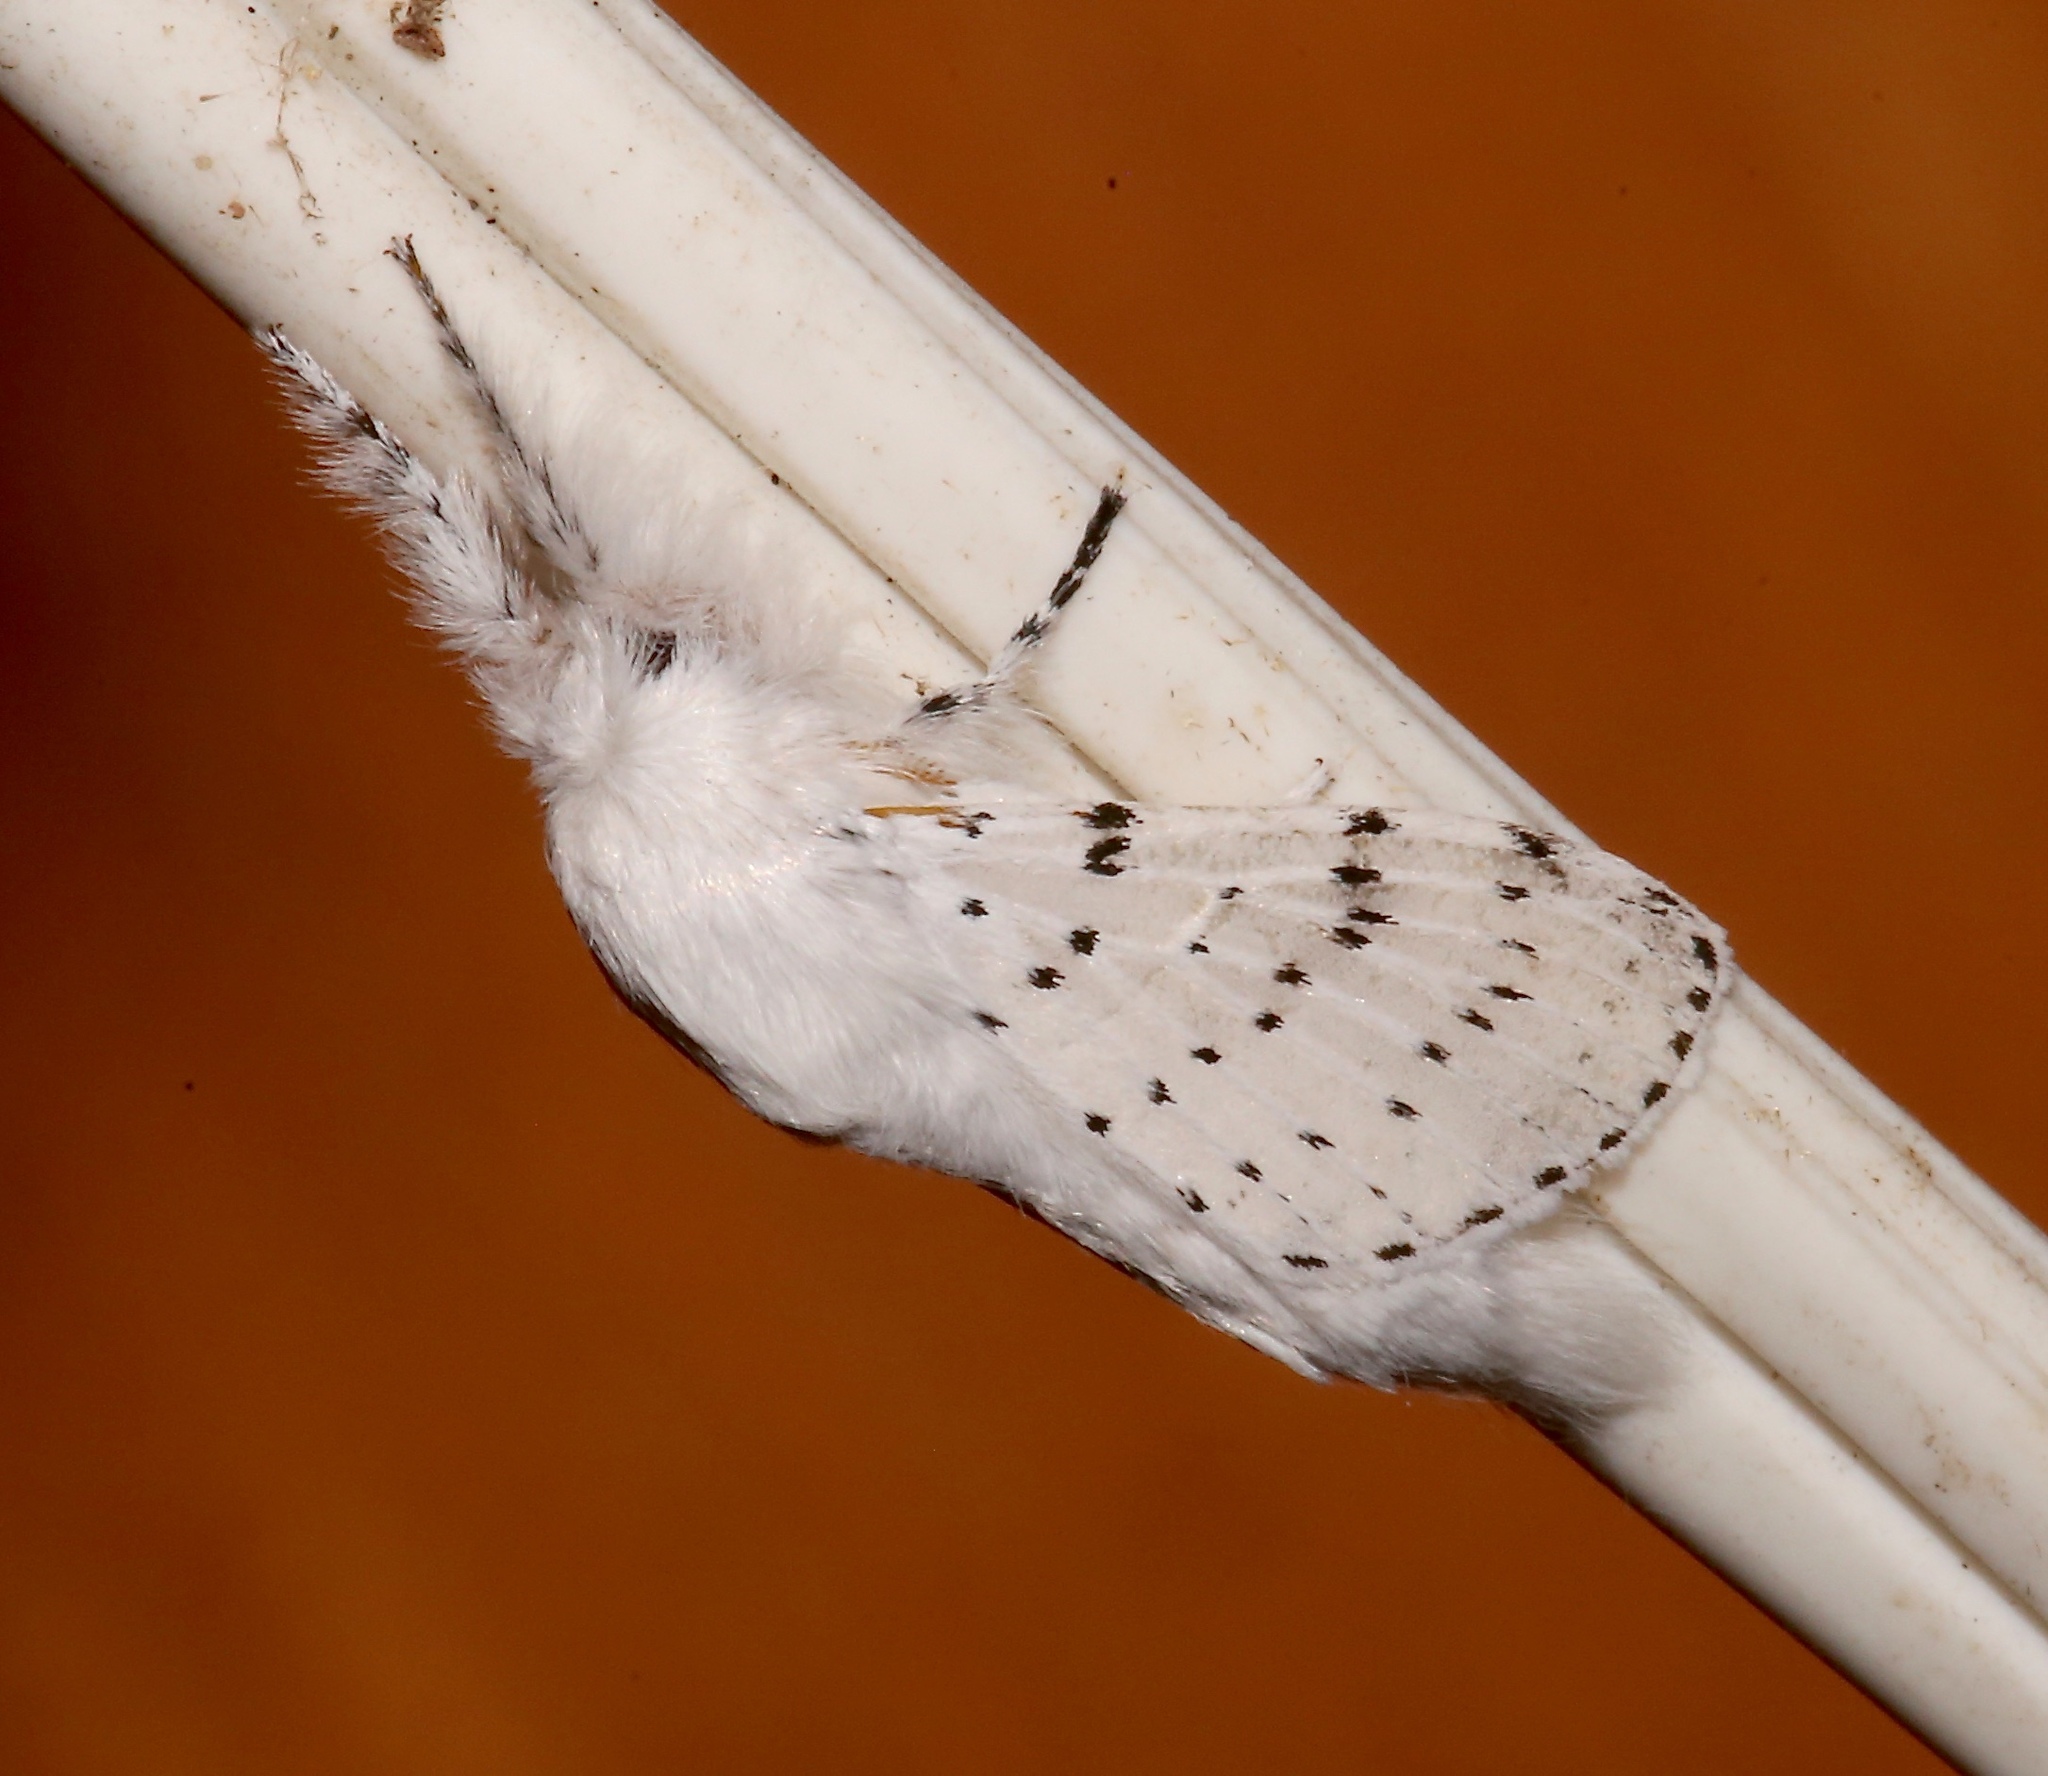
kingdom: Animalia
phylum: Arthropoda
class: Insecta
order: Lepidoptera
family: Lasiocampidae
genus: Artace
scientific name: Artace cribrarius
